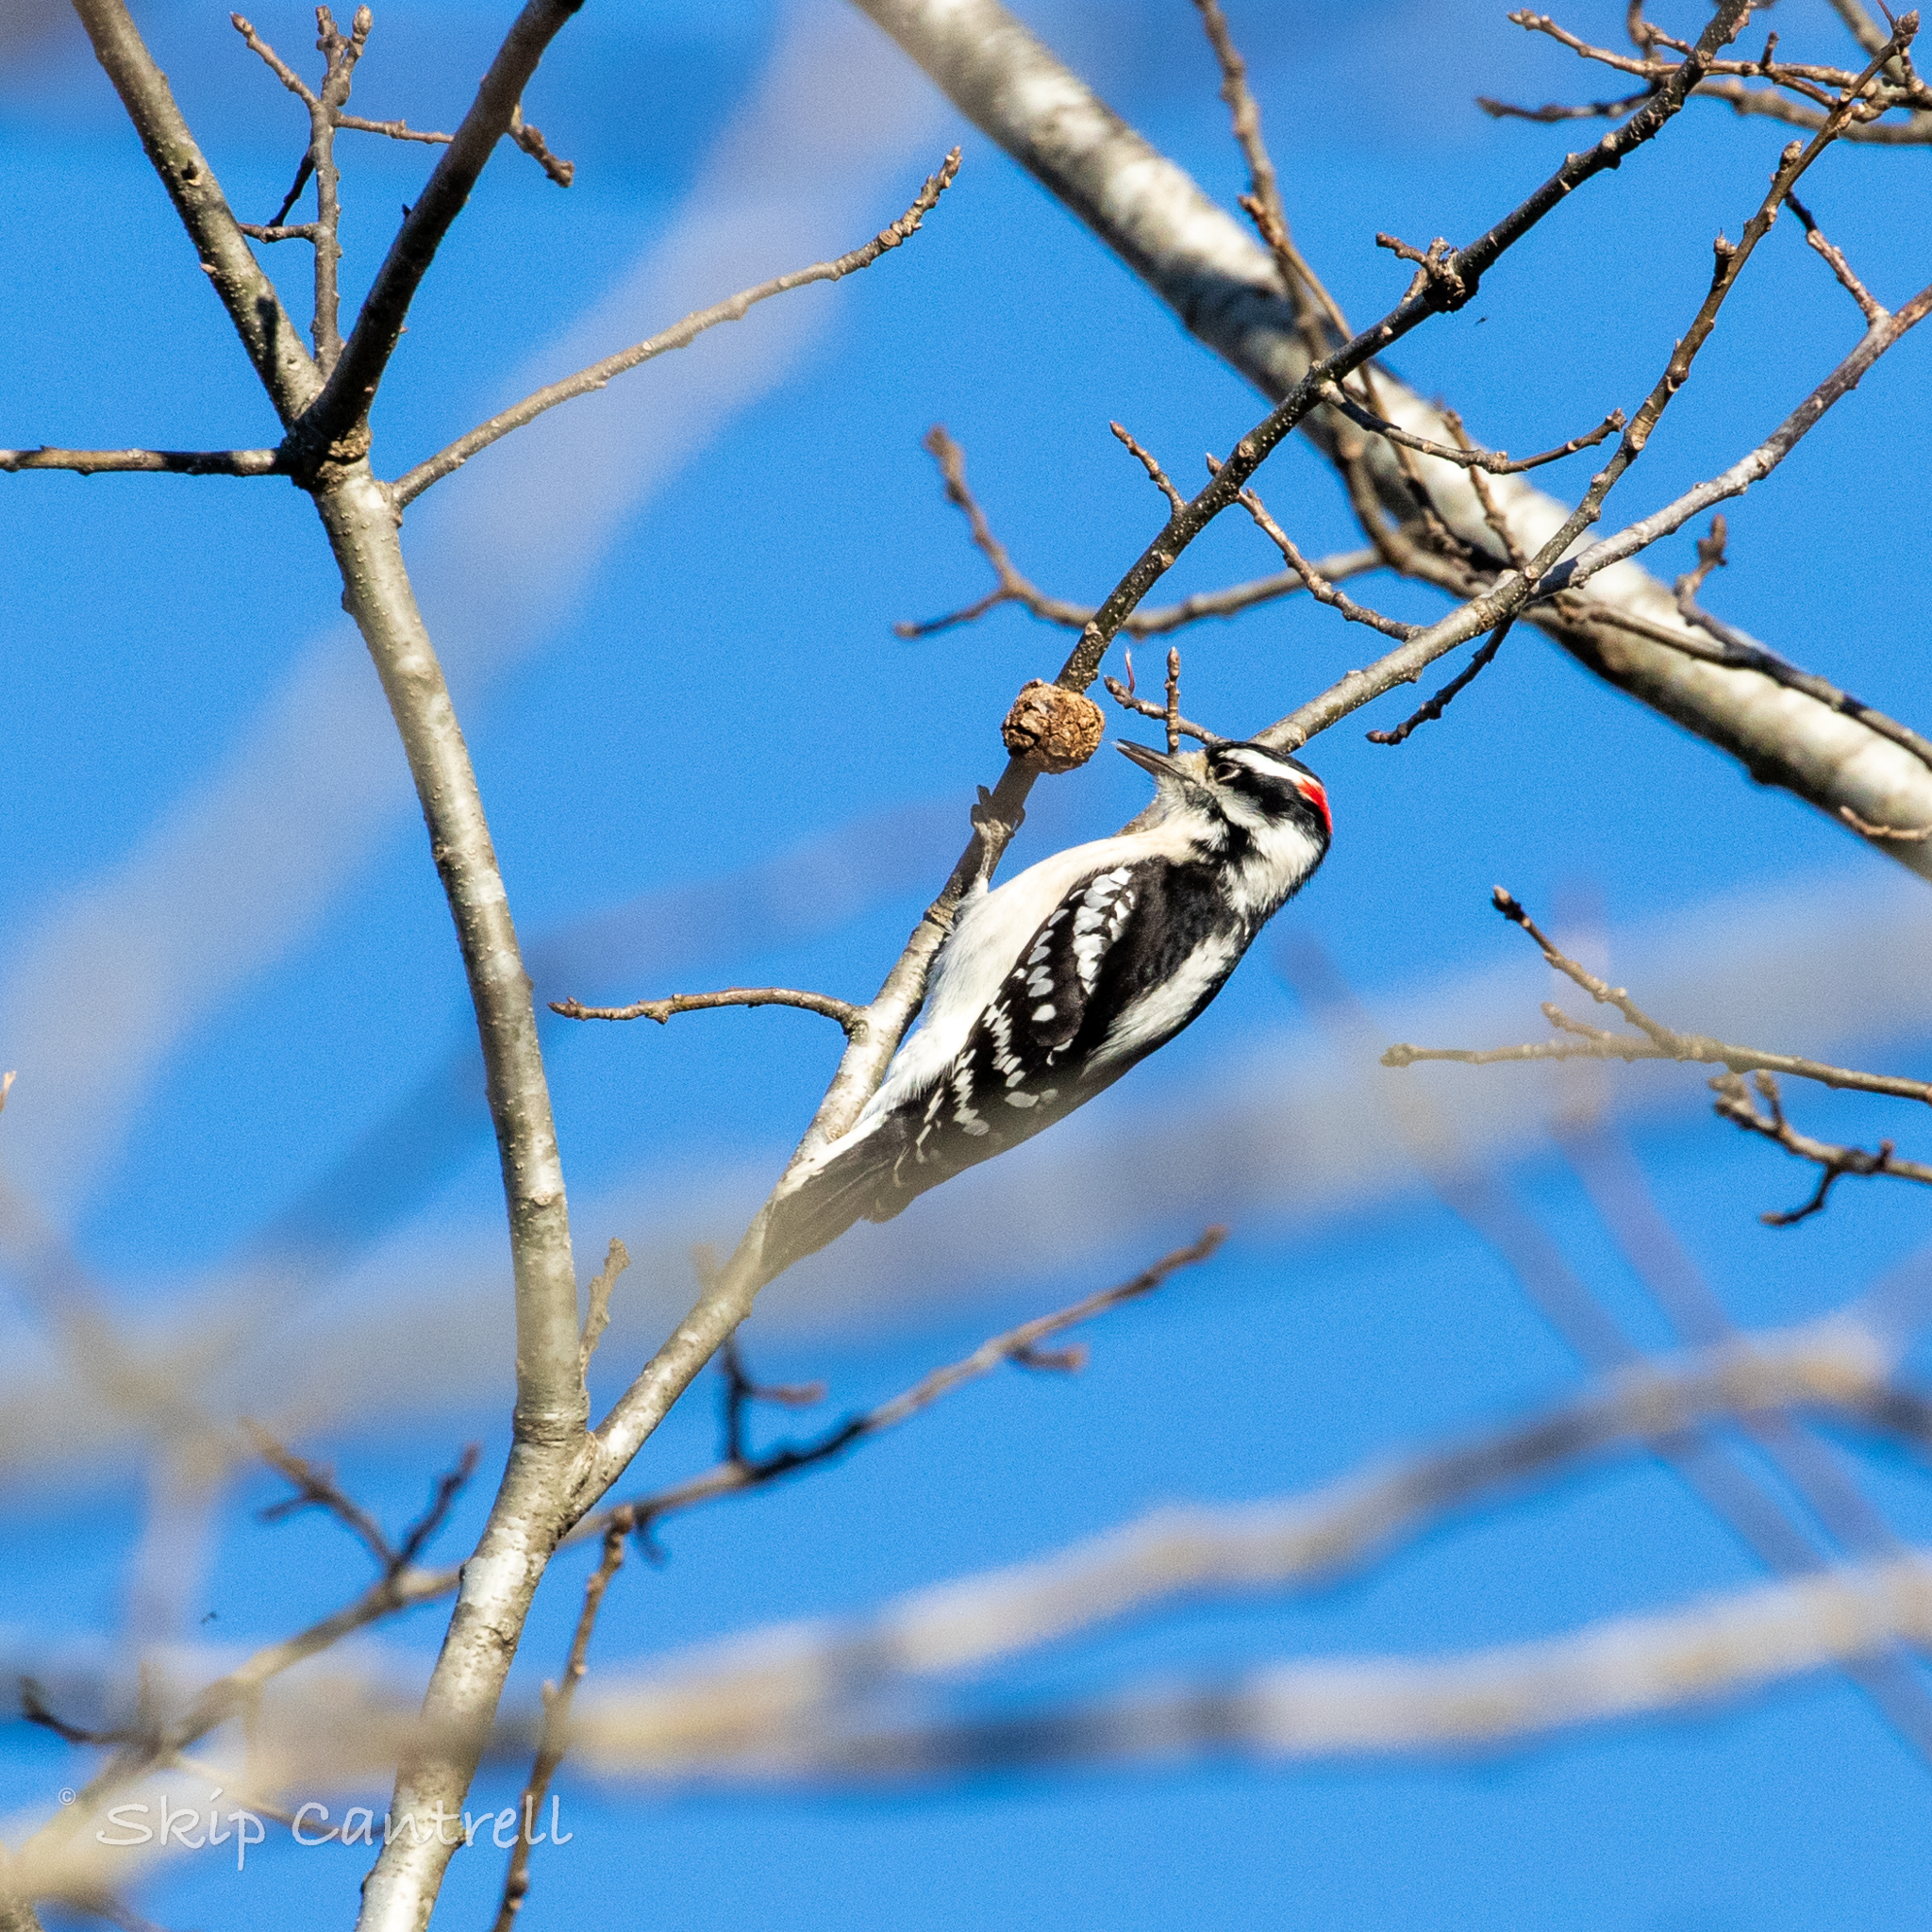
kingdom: Animalia
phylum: Chordata
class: Aves
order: Piciformes
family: Picidae
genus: Dryobates
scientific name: Dryobates pubescens
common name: Downy woodpecker
